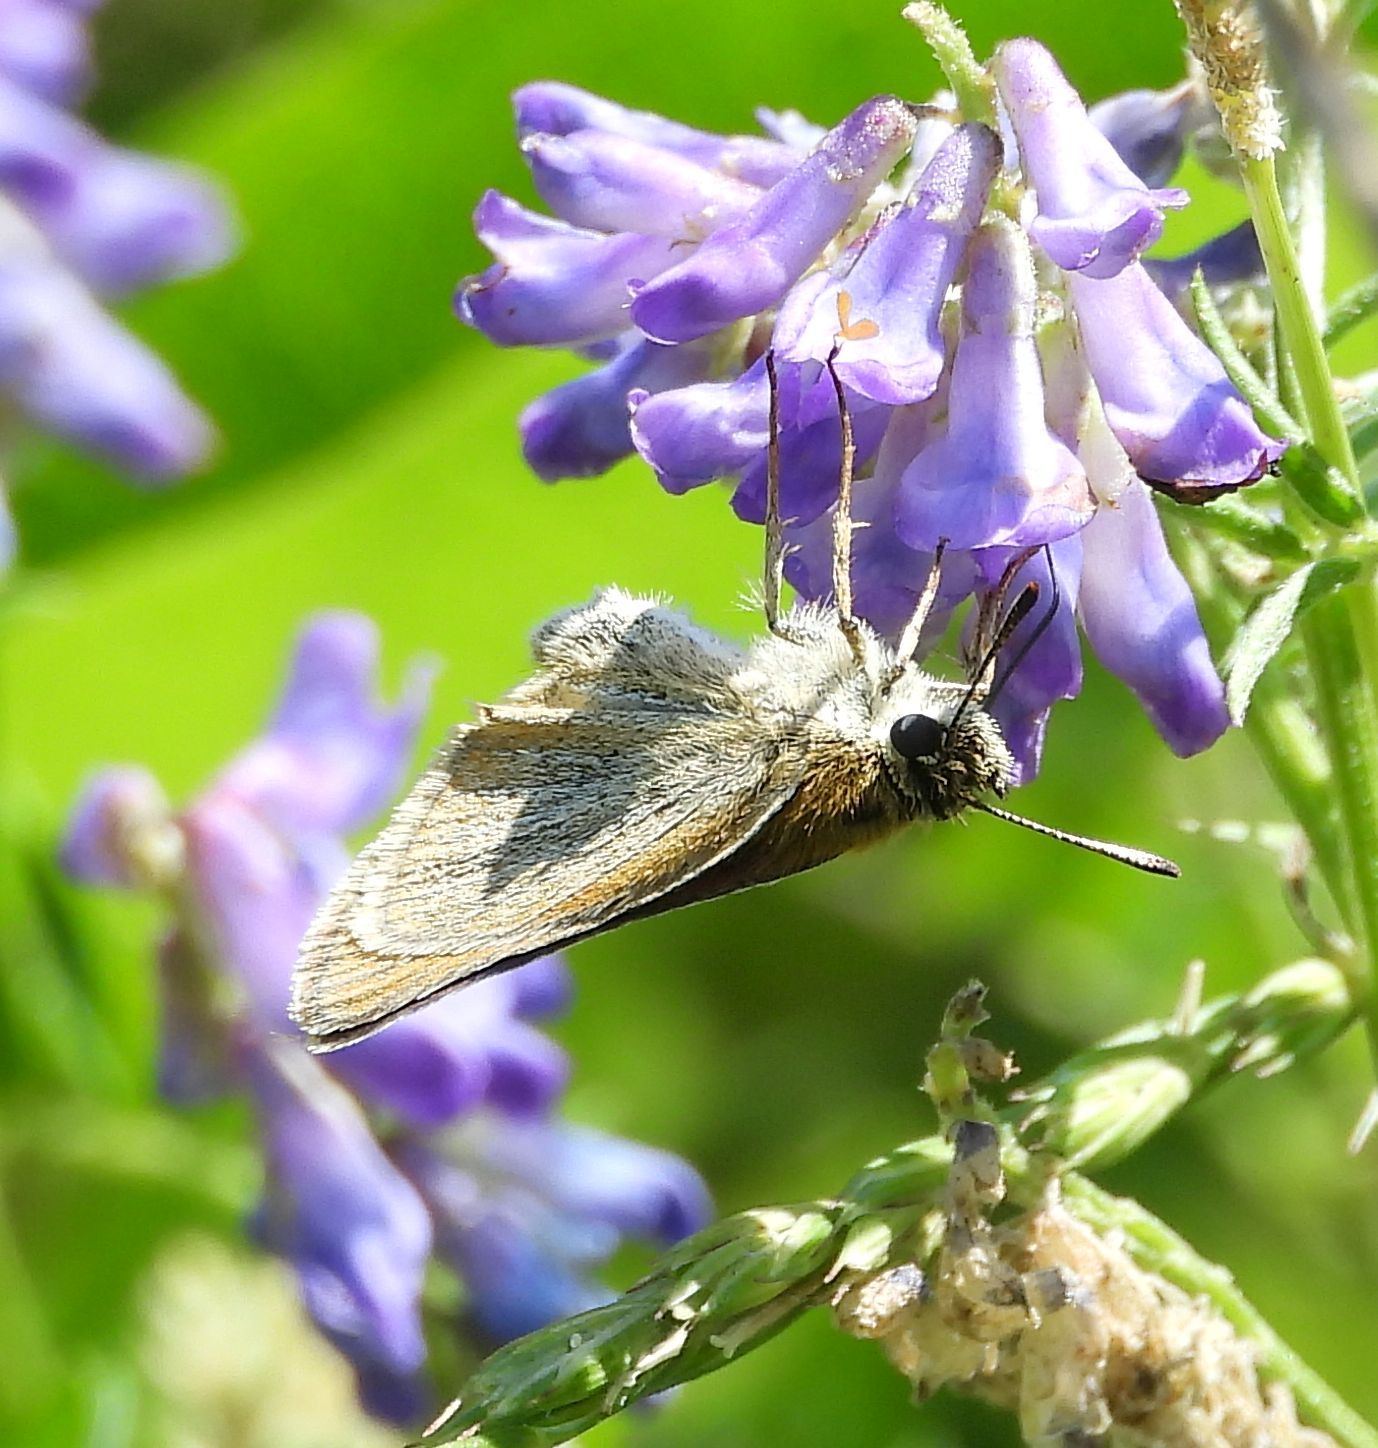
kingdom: Animalia
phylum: Arthropoda
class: Insecta
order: Lepidoptera
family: Hesperiidae
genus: Thymelicus
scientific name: Thymelicus lineola
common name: Essex skipper
